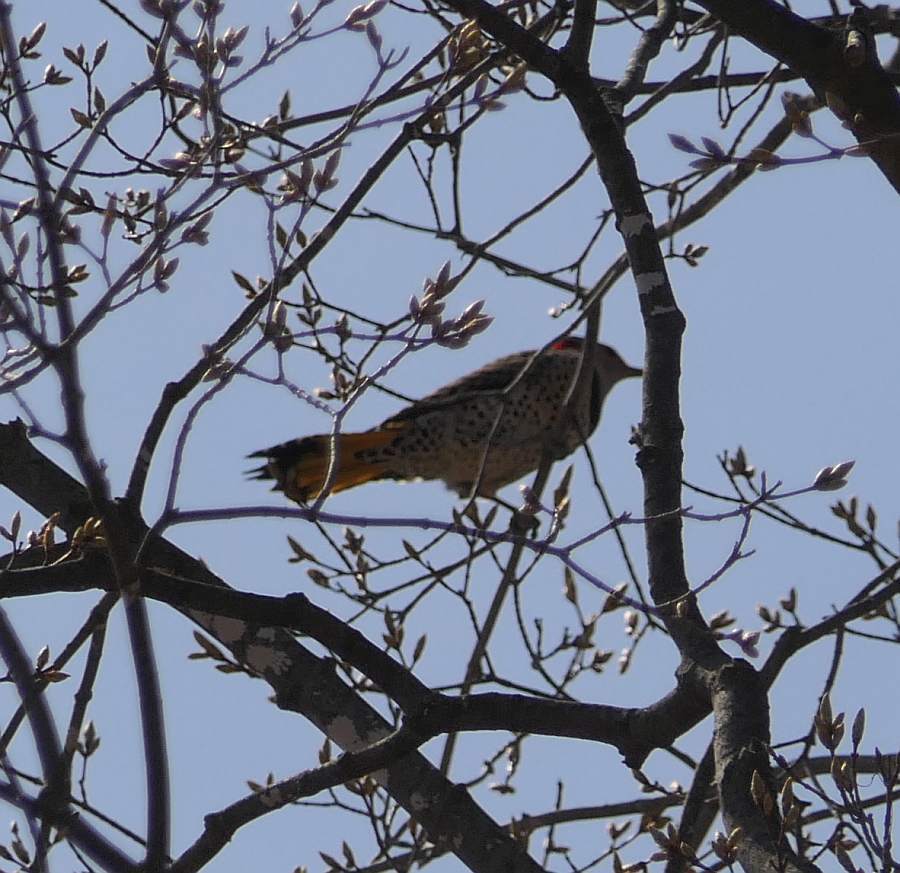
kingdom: Animalia
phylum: Chordata
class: Aves
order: Piciformes
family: Picidae
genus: Colaptes
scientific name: Colaptes auratus
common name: Northern flicker
